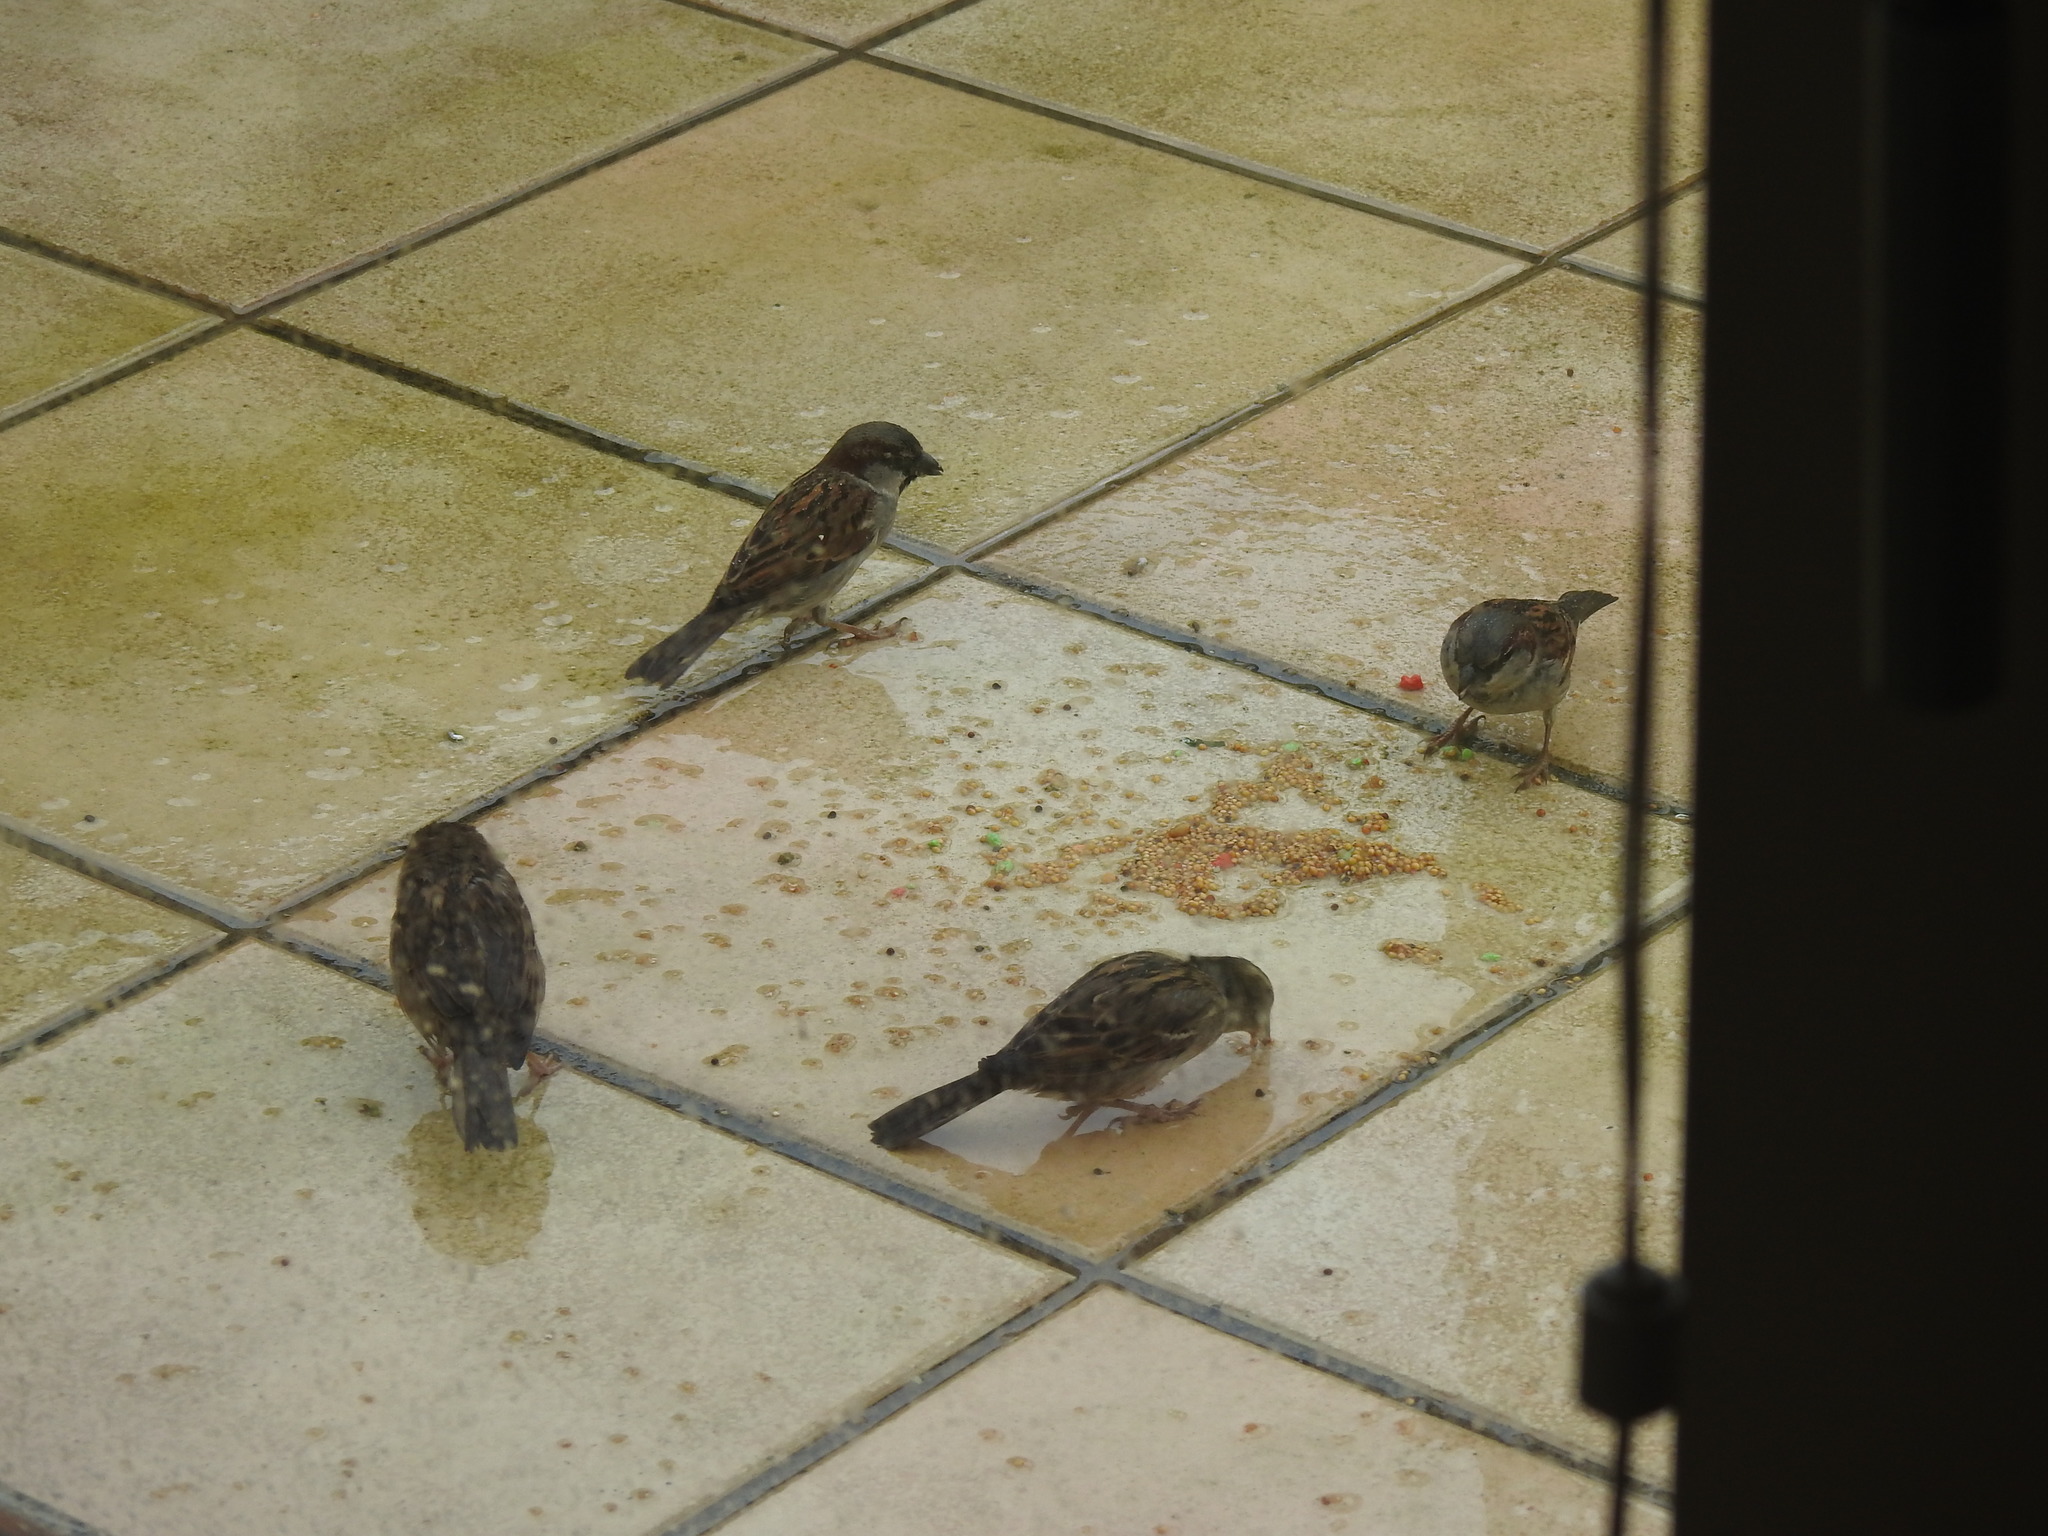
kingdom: Animalia
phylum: Chordata
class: Aves
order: Passeriformes
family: Passeridae
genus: Passer
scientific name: Passer domesticus
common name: House sparrow
